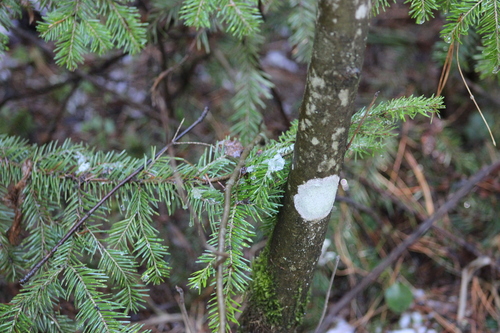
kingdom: Fungi
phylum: Ascomycota
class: Lecanoromycetes
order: Ostropales
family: Phlyctidaceae
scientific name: Phlyctidaceae
